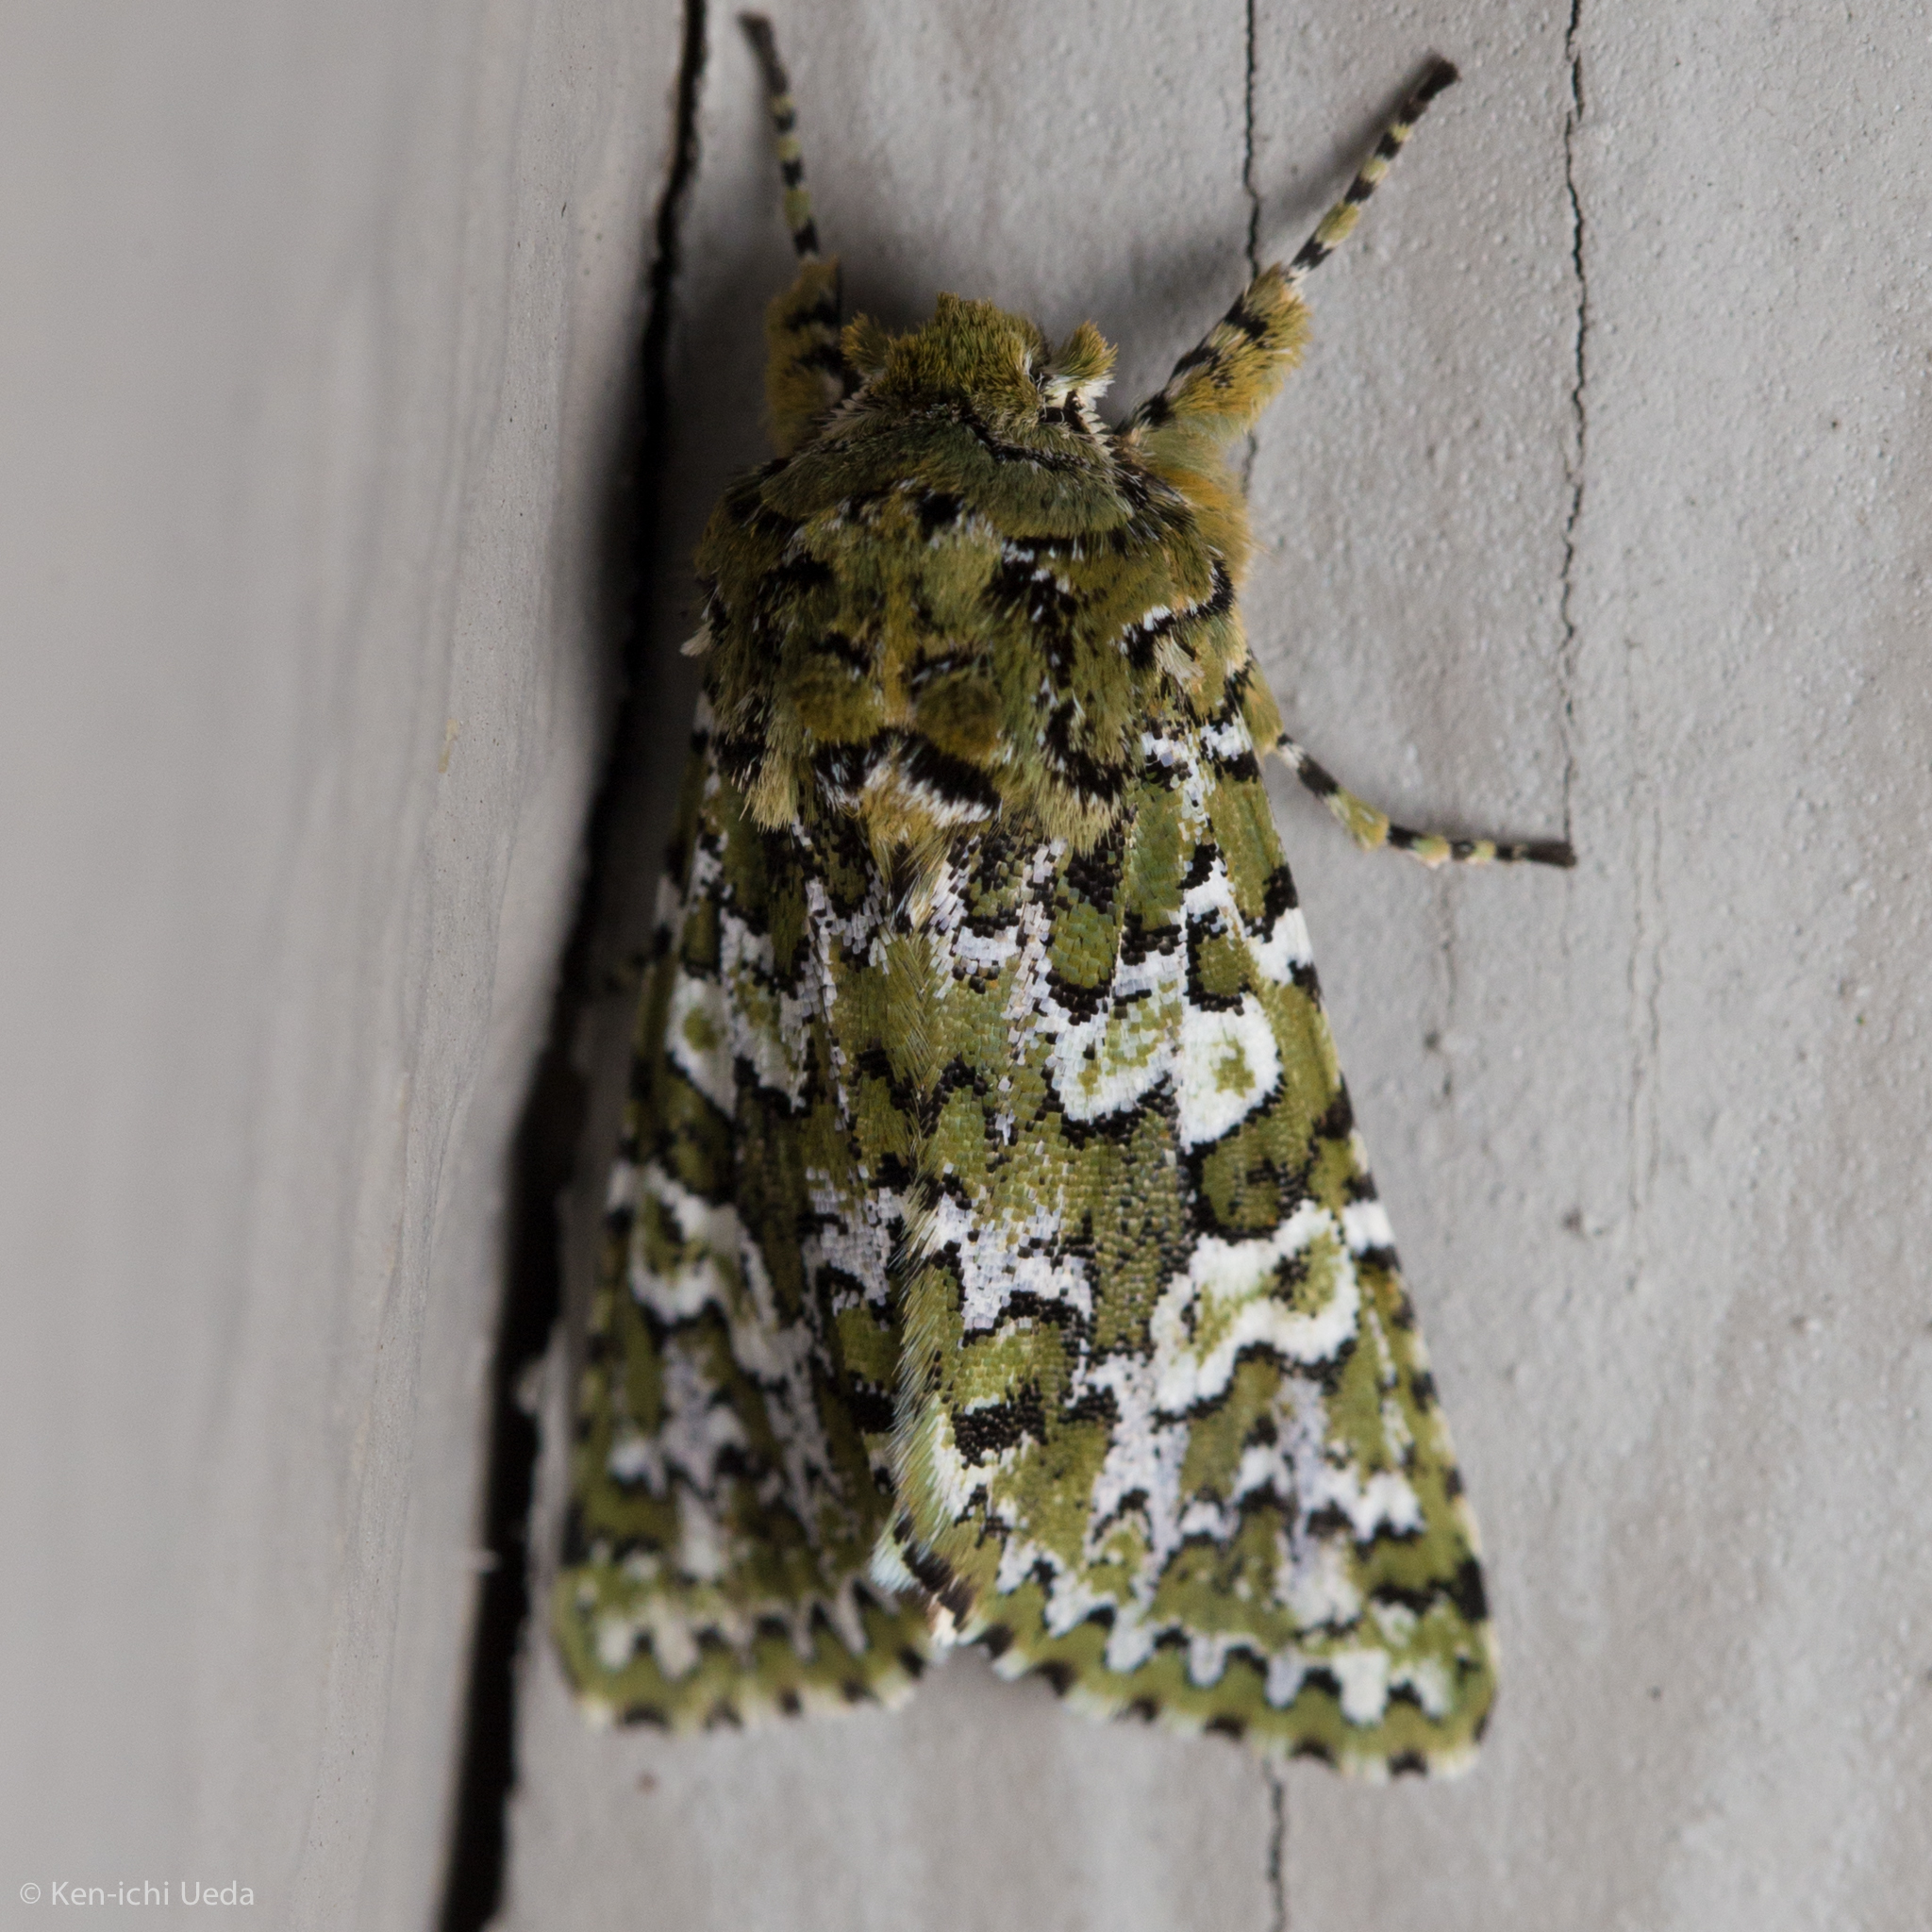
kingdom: Animalia
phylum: Arthropoda
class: Insecta
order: Lepidoptera
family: Noctuidae
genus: Feralia
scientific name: Feralia februalis
